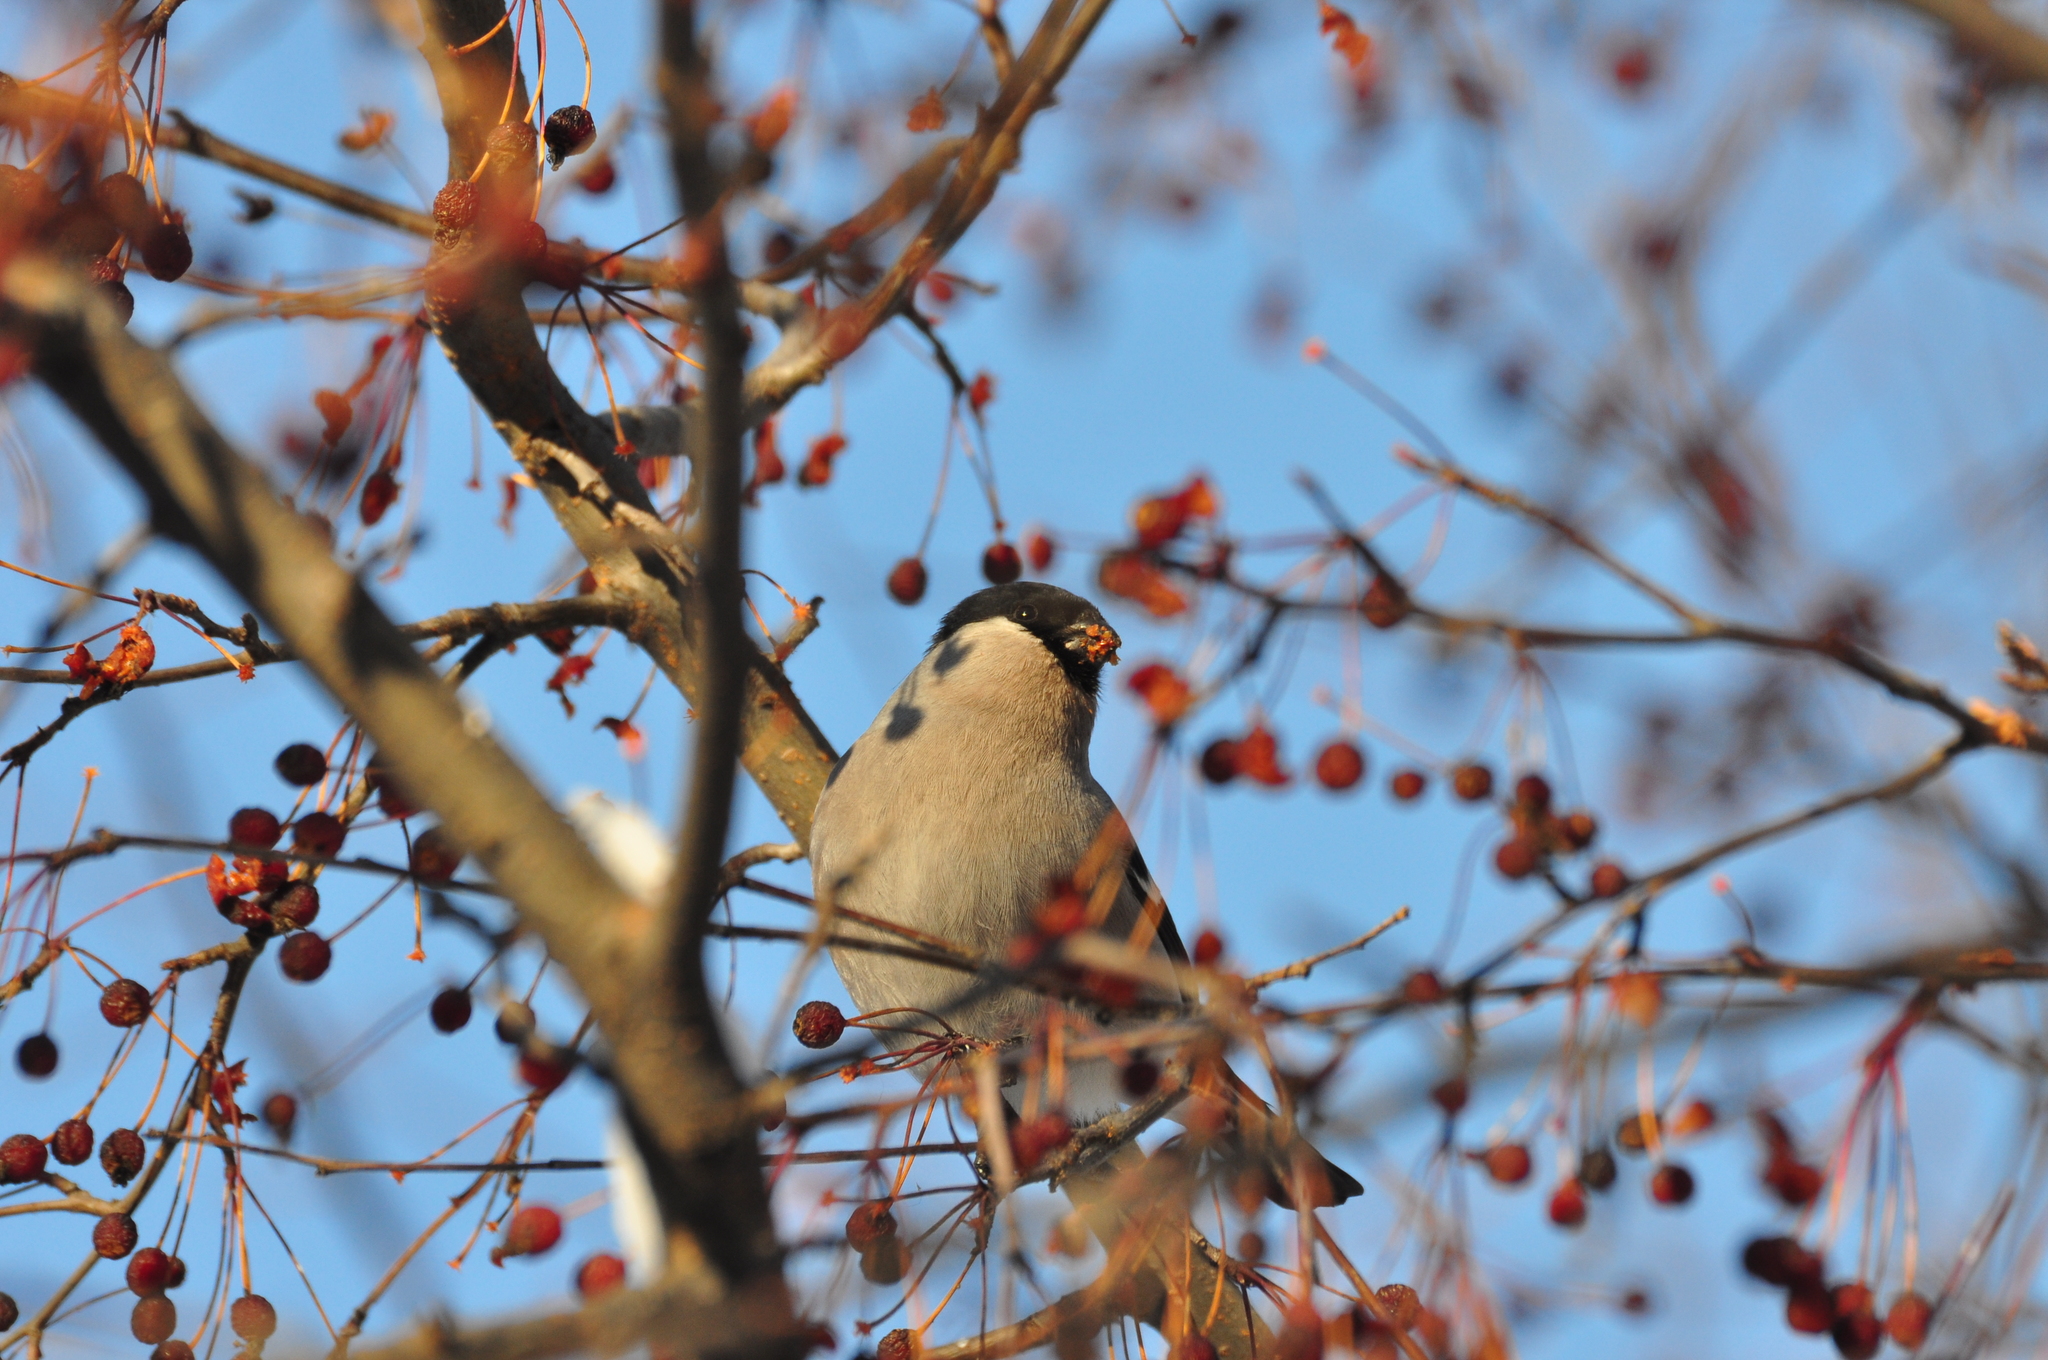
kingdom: Animalia
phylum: Chordata
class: Aves
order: Passeriformes
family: Fringillidae
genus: Pyrrhula
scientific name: Pyrrhula pyrrhula
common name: Eurasian bullfinch
